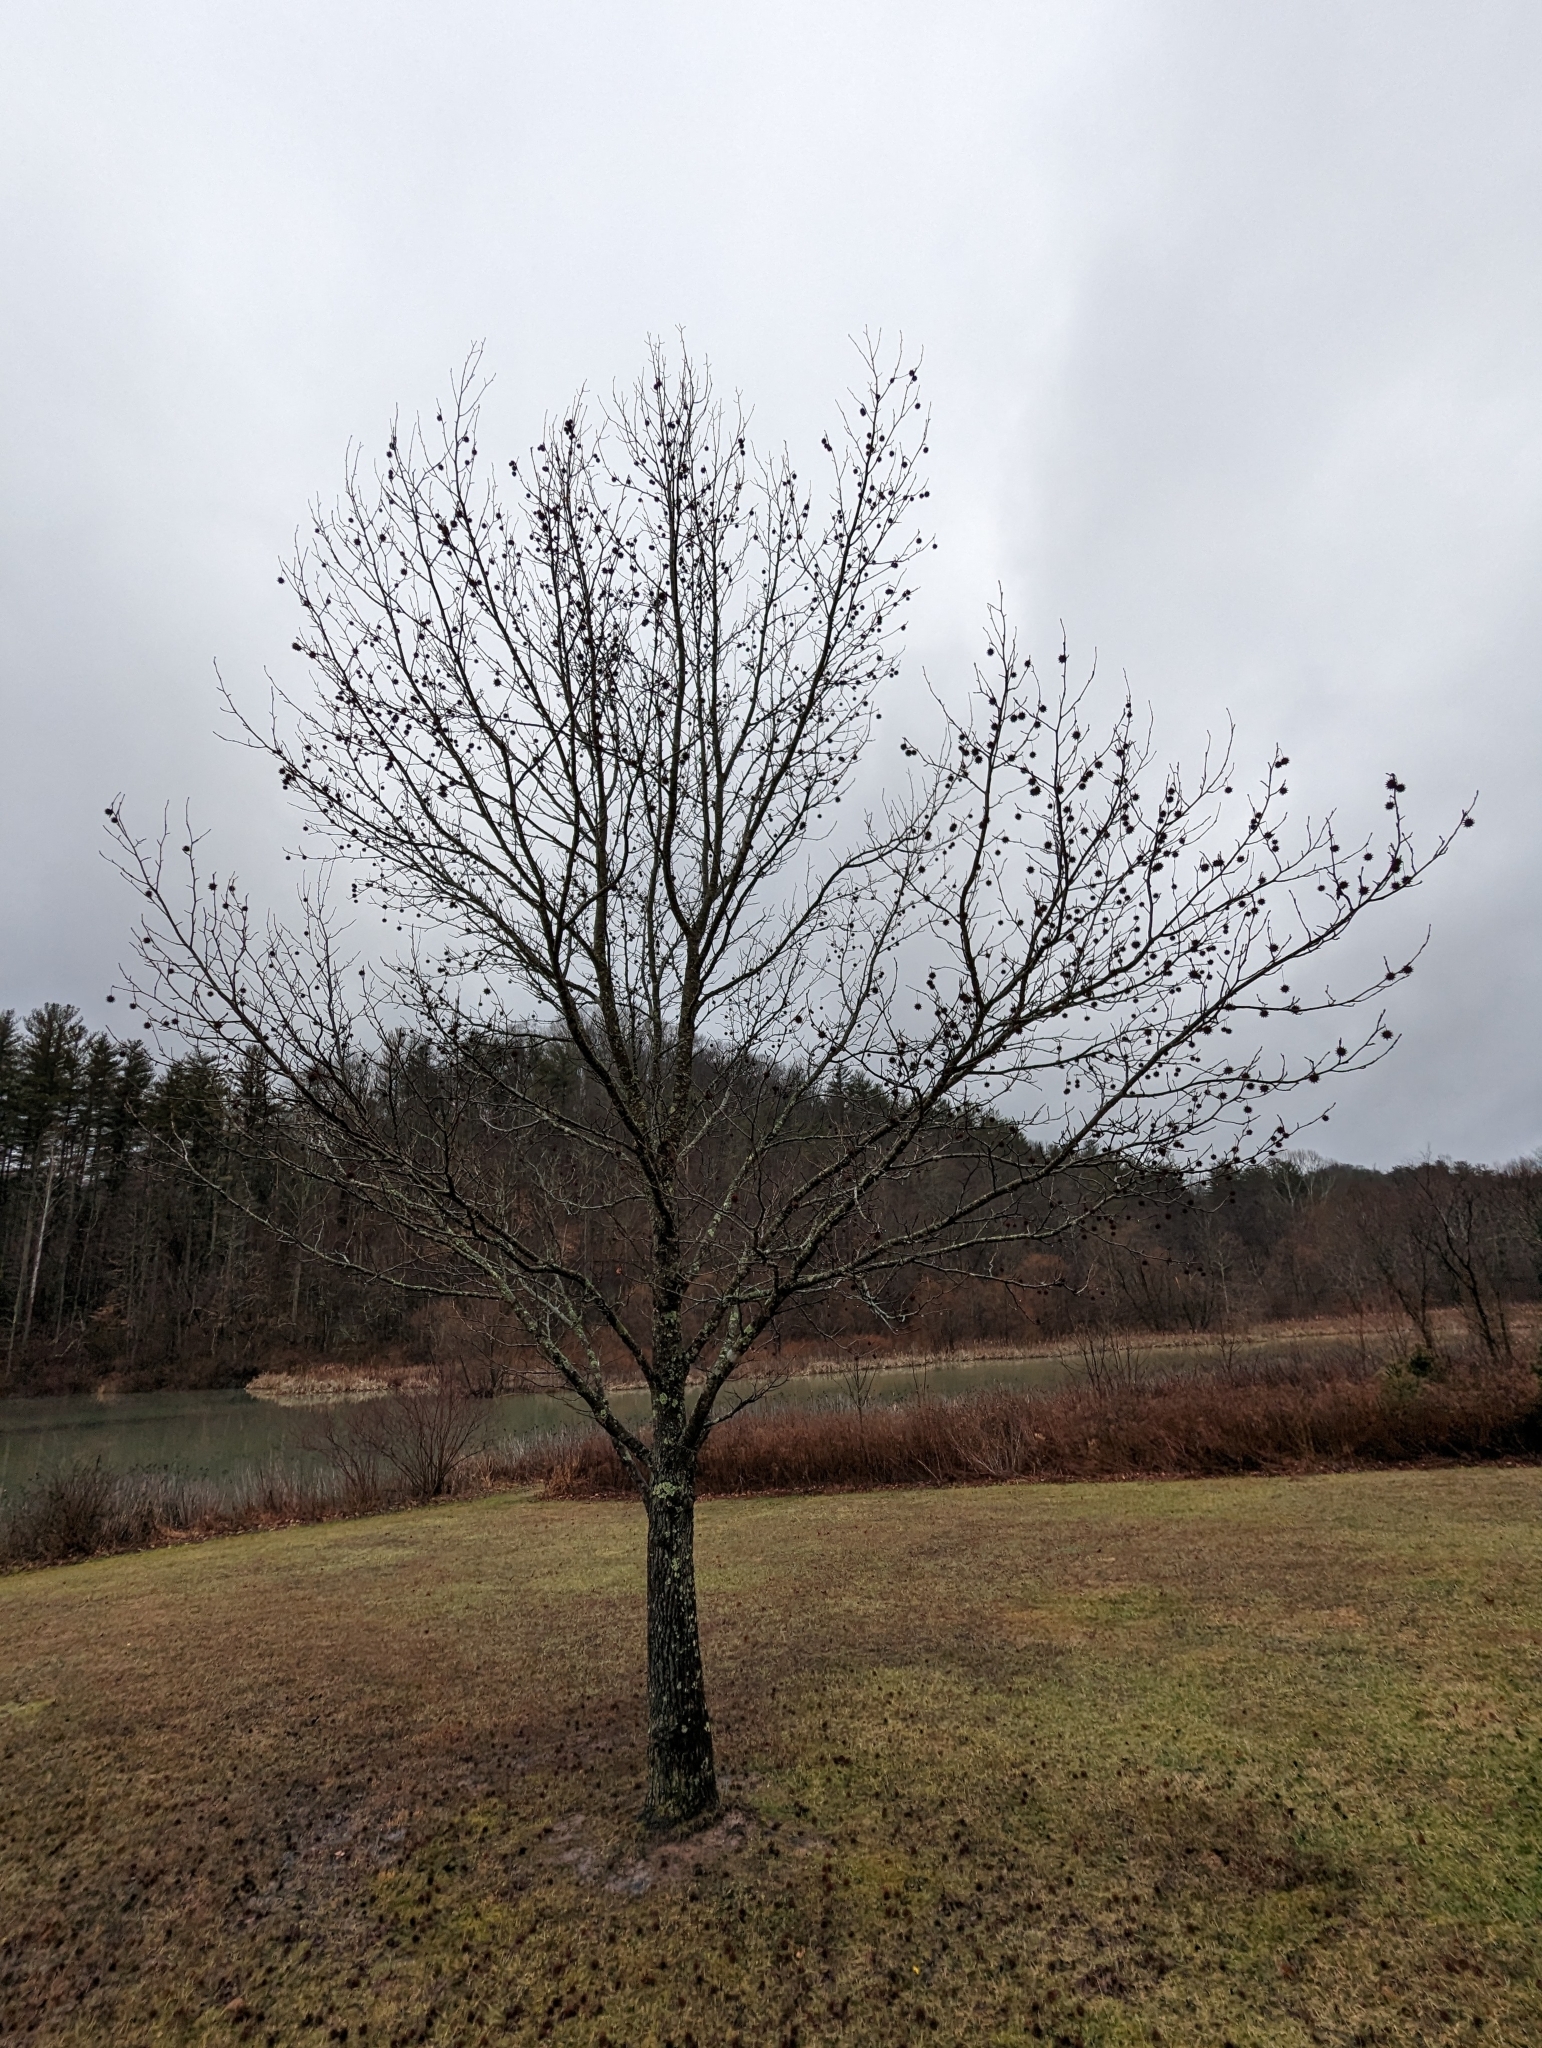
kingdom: Plantae
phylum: Tracheophyta
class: Magnoliopsida
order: Saxifragales
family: Altingiaceae
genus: Liquidambar
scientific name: Liquidambar styraciflua
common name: Sweet gum
